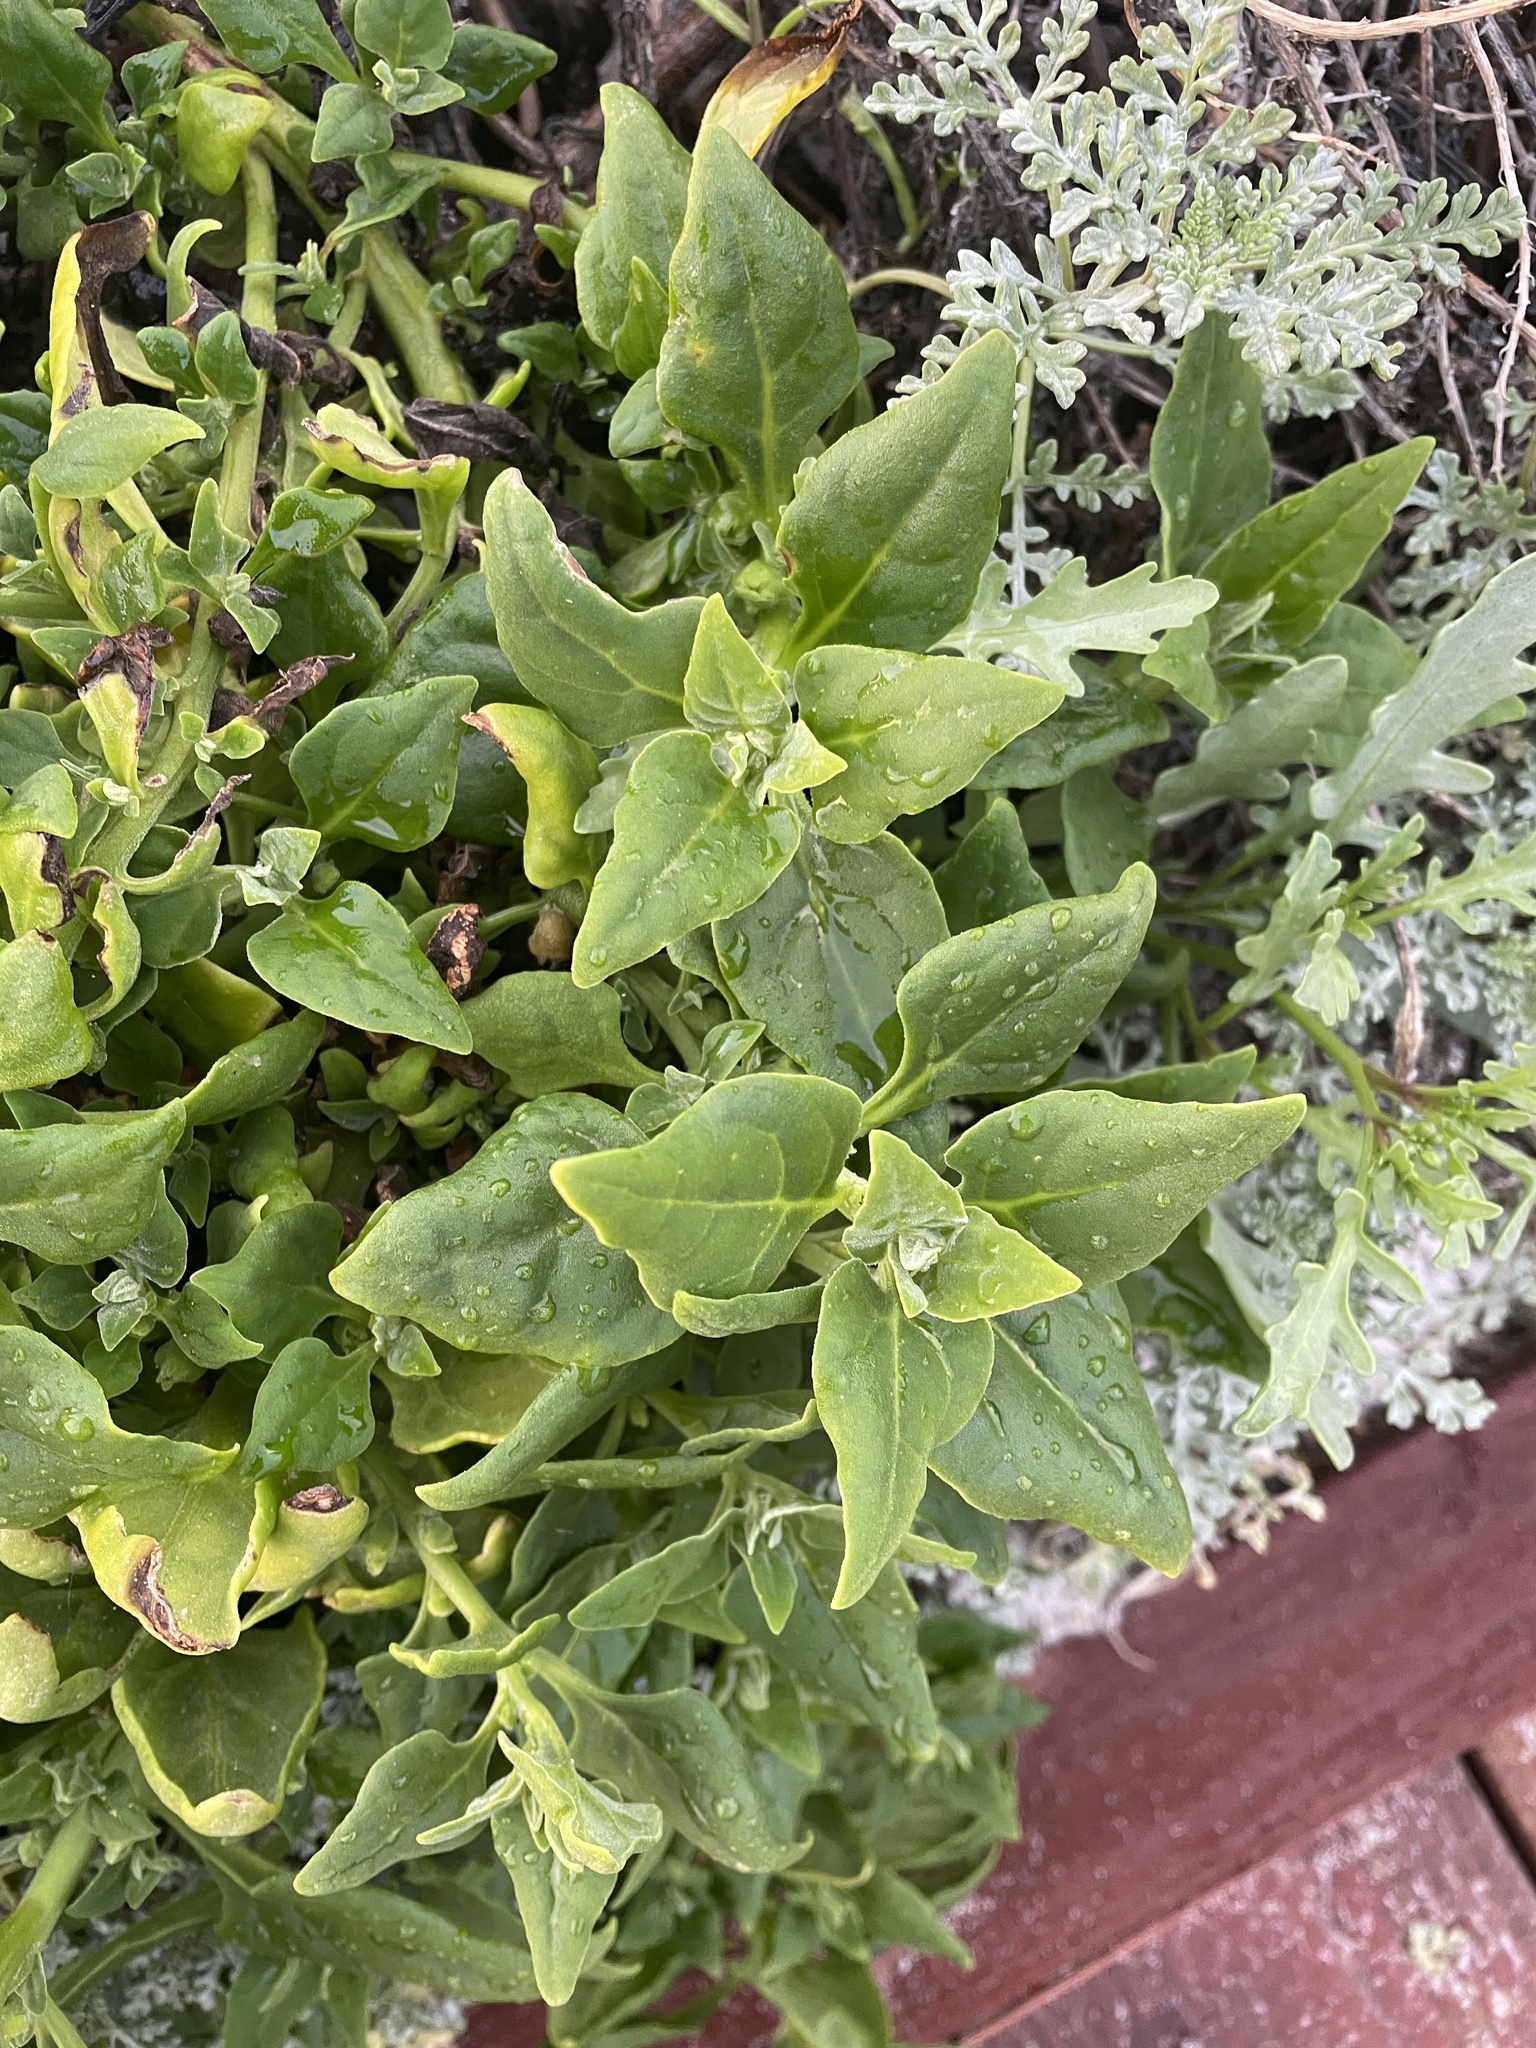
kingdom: Plantae
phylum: Tracheophyta
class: Magnoliopsida
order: Caryophyllales
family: Aizoaceae
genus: Tetragonia
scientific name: Tetragonia tetragonoides
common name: New zealand-spinach
